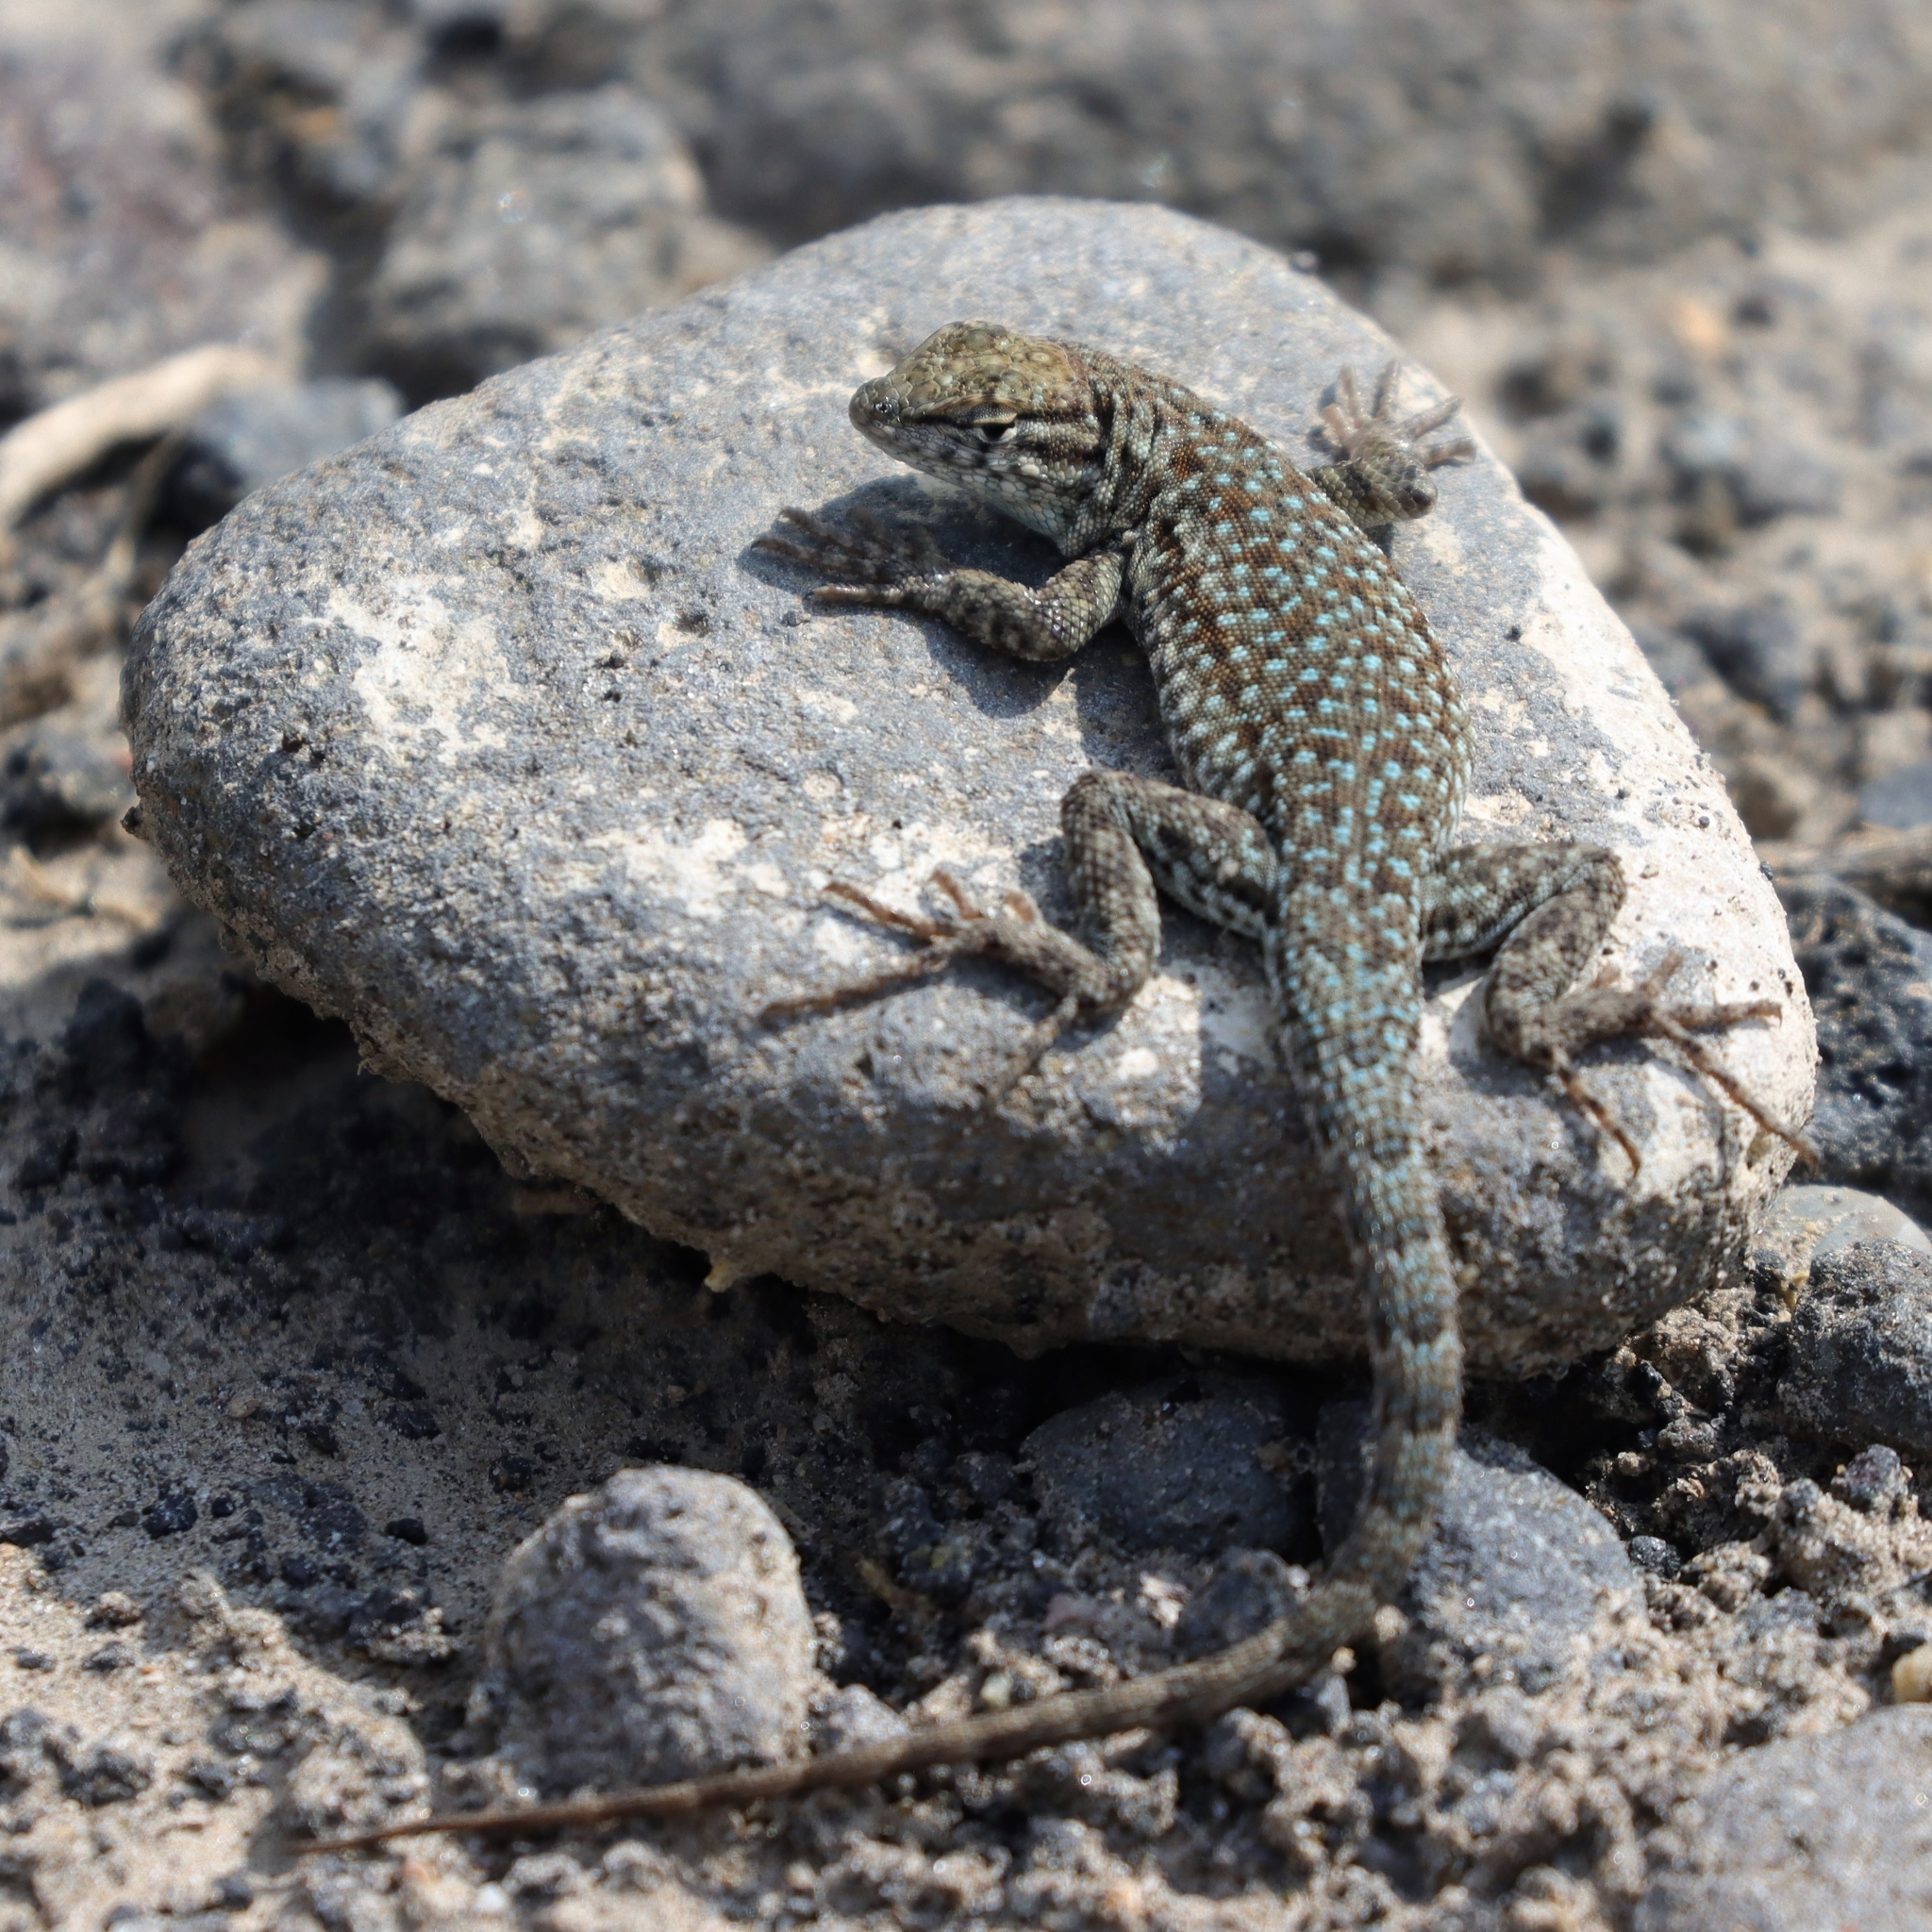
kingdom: Animalia
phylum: Chordata
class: Squamata
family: Phrynosomatidae
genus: Uta
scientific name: Uta stansburiana
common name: Side-blotched lizard
